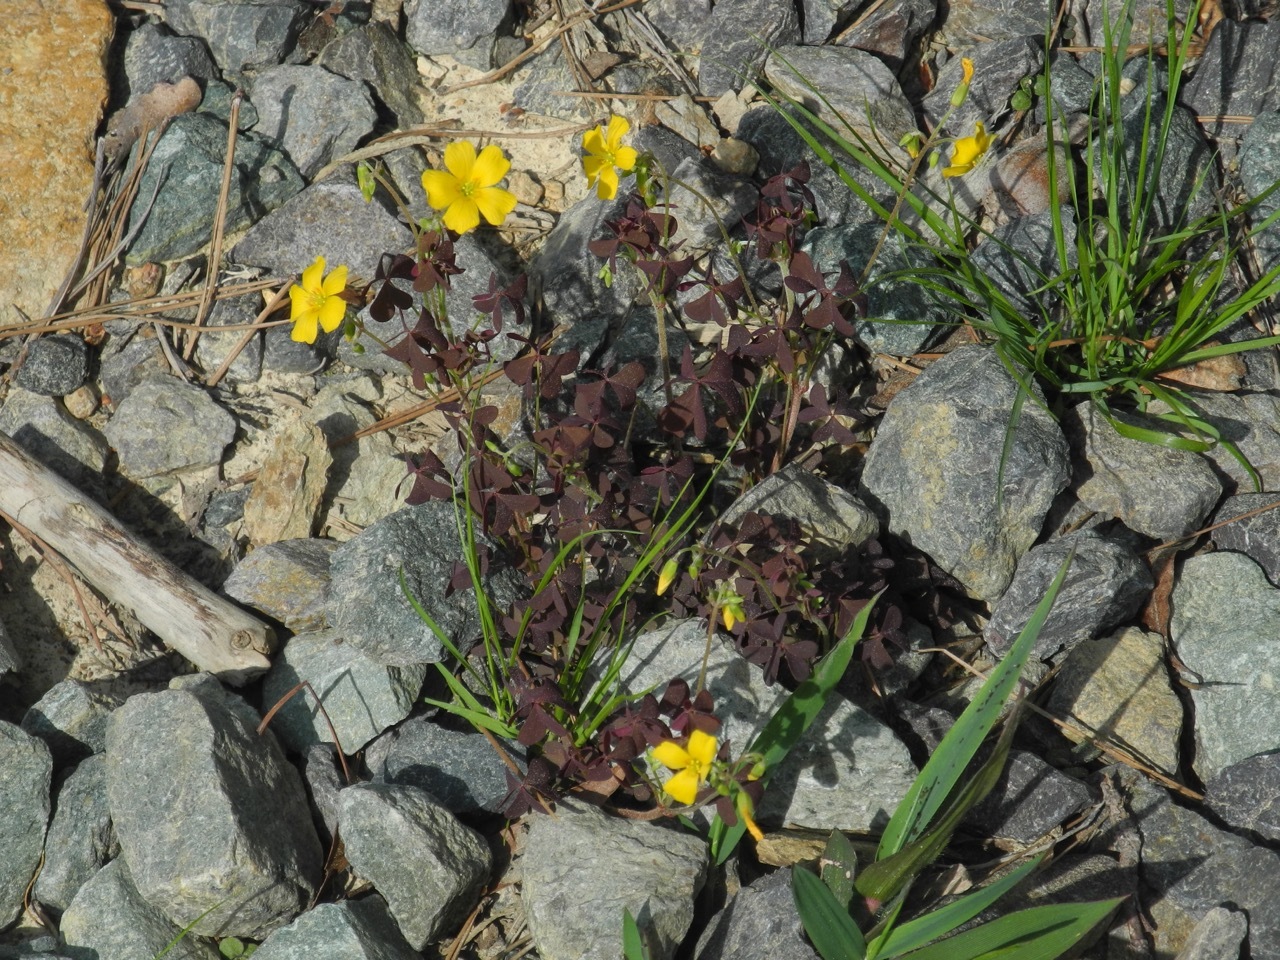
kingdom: Plantae
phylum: Tracheophyta
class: Magnoliopsida
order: Oxalidales
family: Oxalidaceae
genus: Oxalis
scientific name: Oxalis corniculata
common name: Procumbent yellow-sorrel
